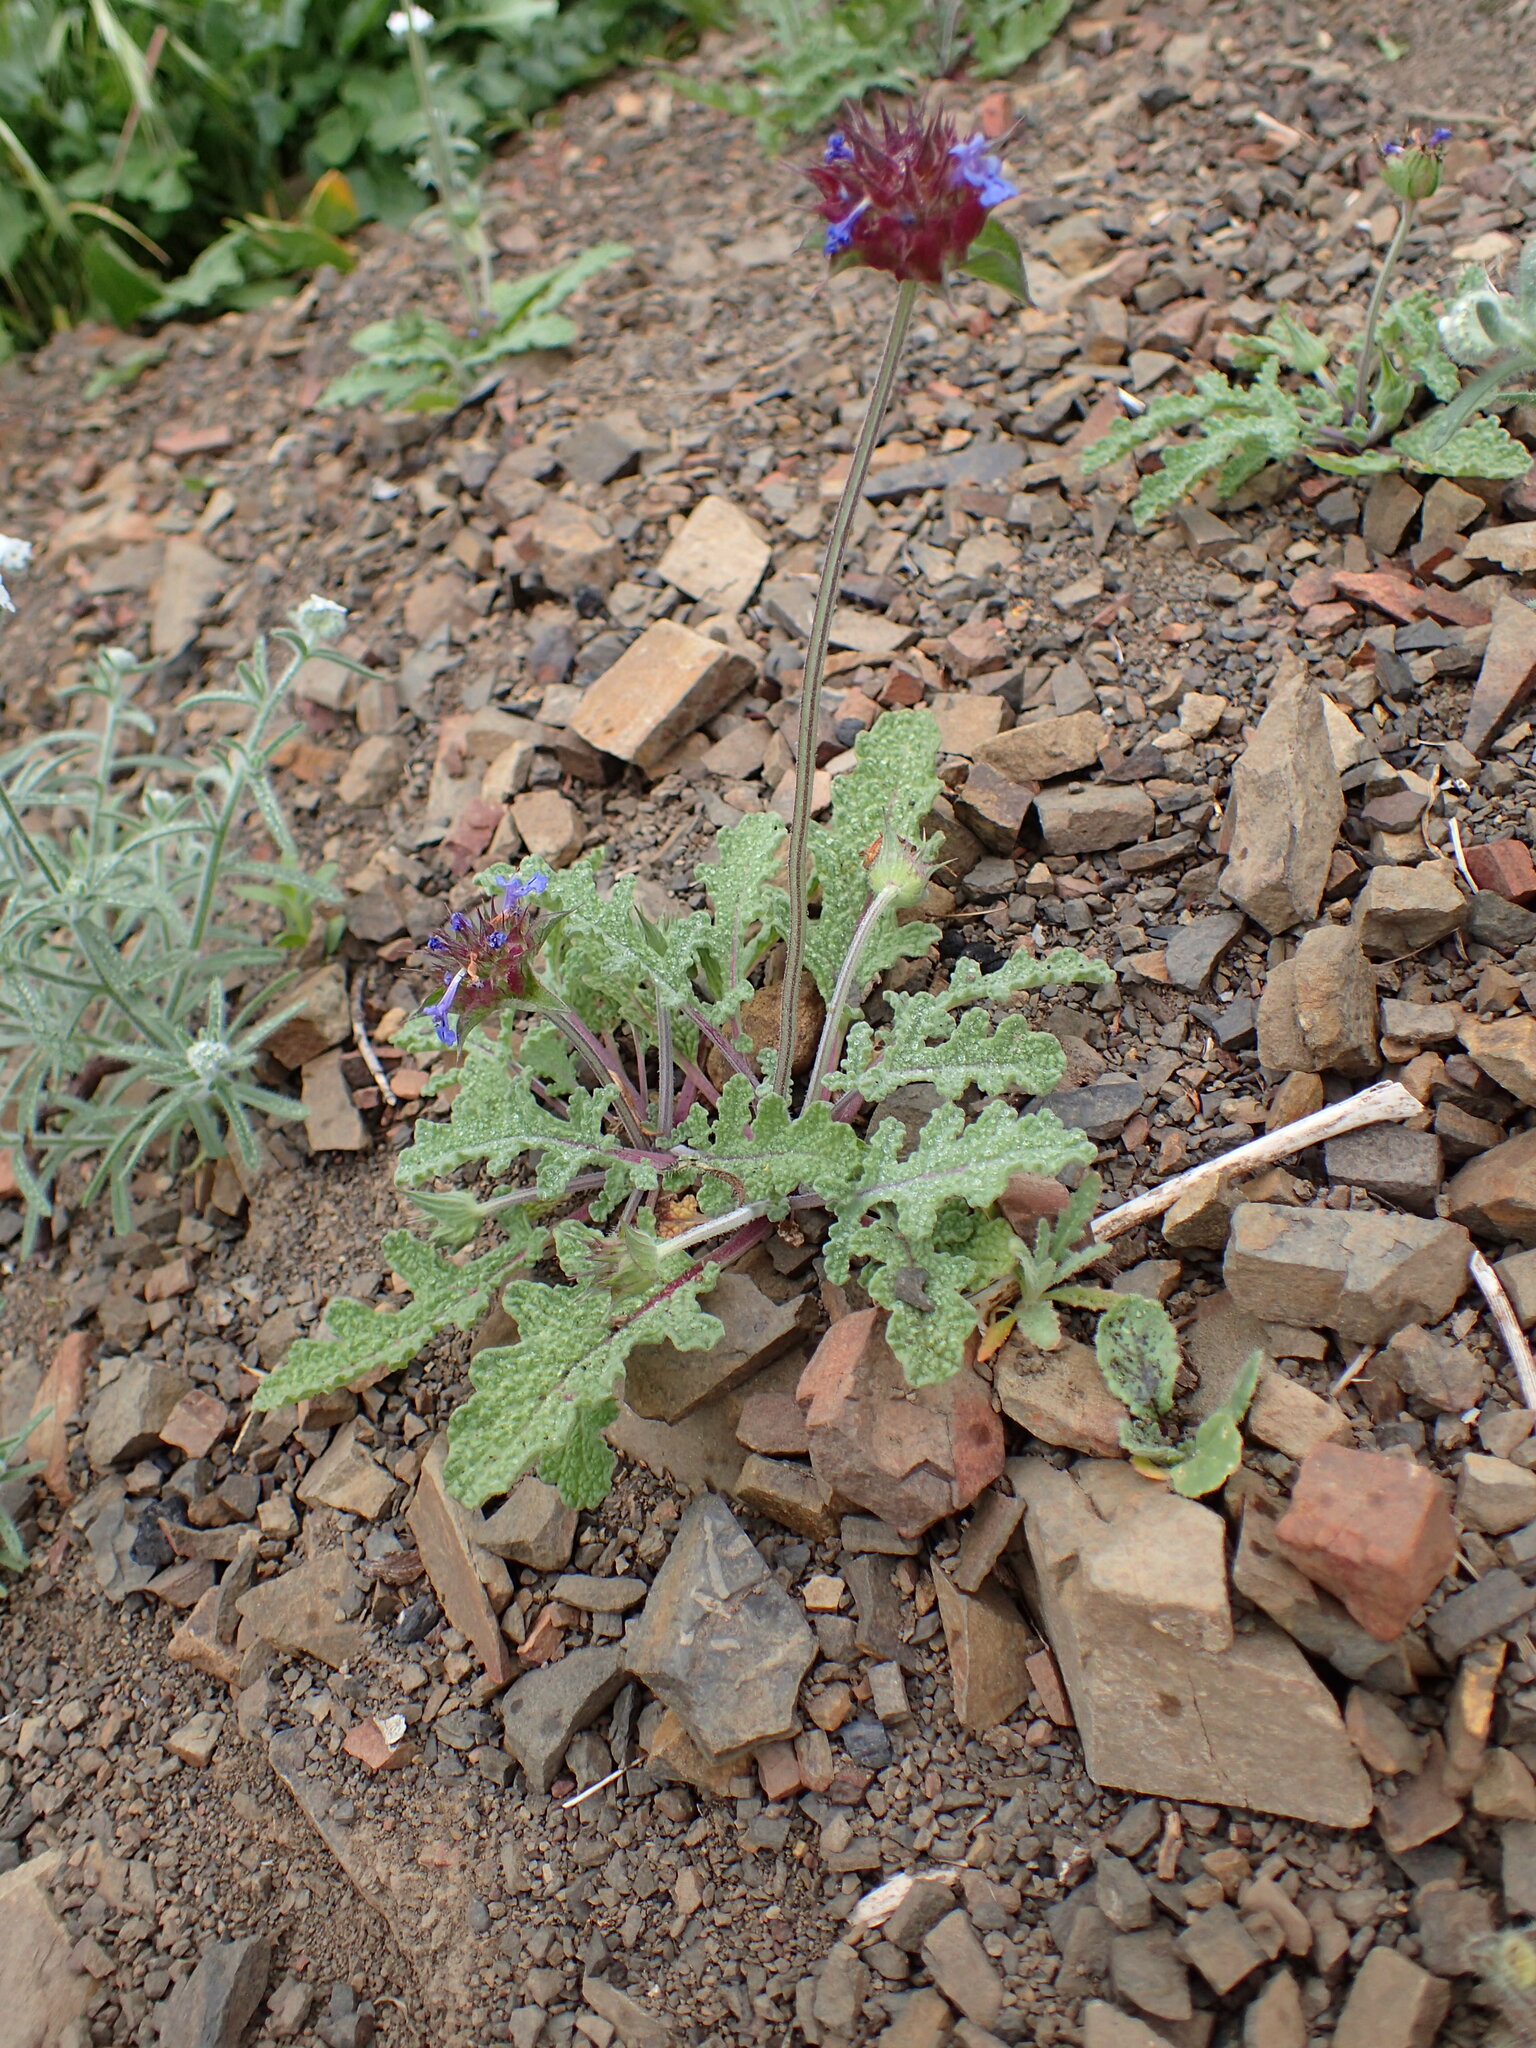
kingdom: Plantae
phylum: Tracheophyta
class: Magnoliopsida
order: Lamiales
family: Lamiaceae
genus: Salvia
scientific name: Salvia columbariae
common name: Chia
